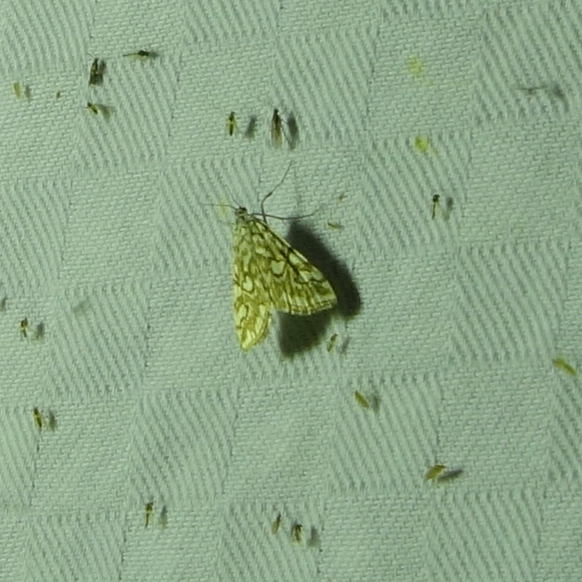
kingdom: Animalia
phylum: Arthropoda
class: Insecta
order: Lepidoptera
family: Crambidae
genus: Elophila
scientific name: Elophila nymphaeata
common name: Brown china-mark
